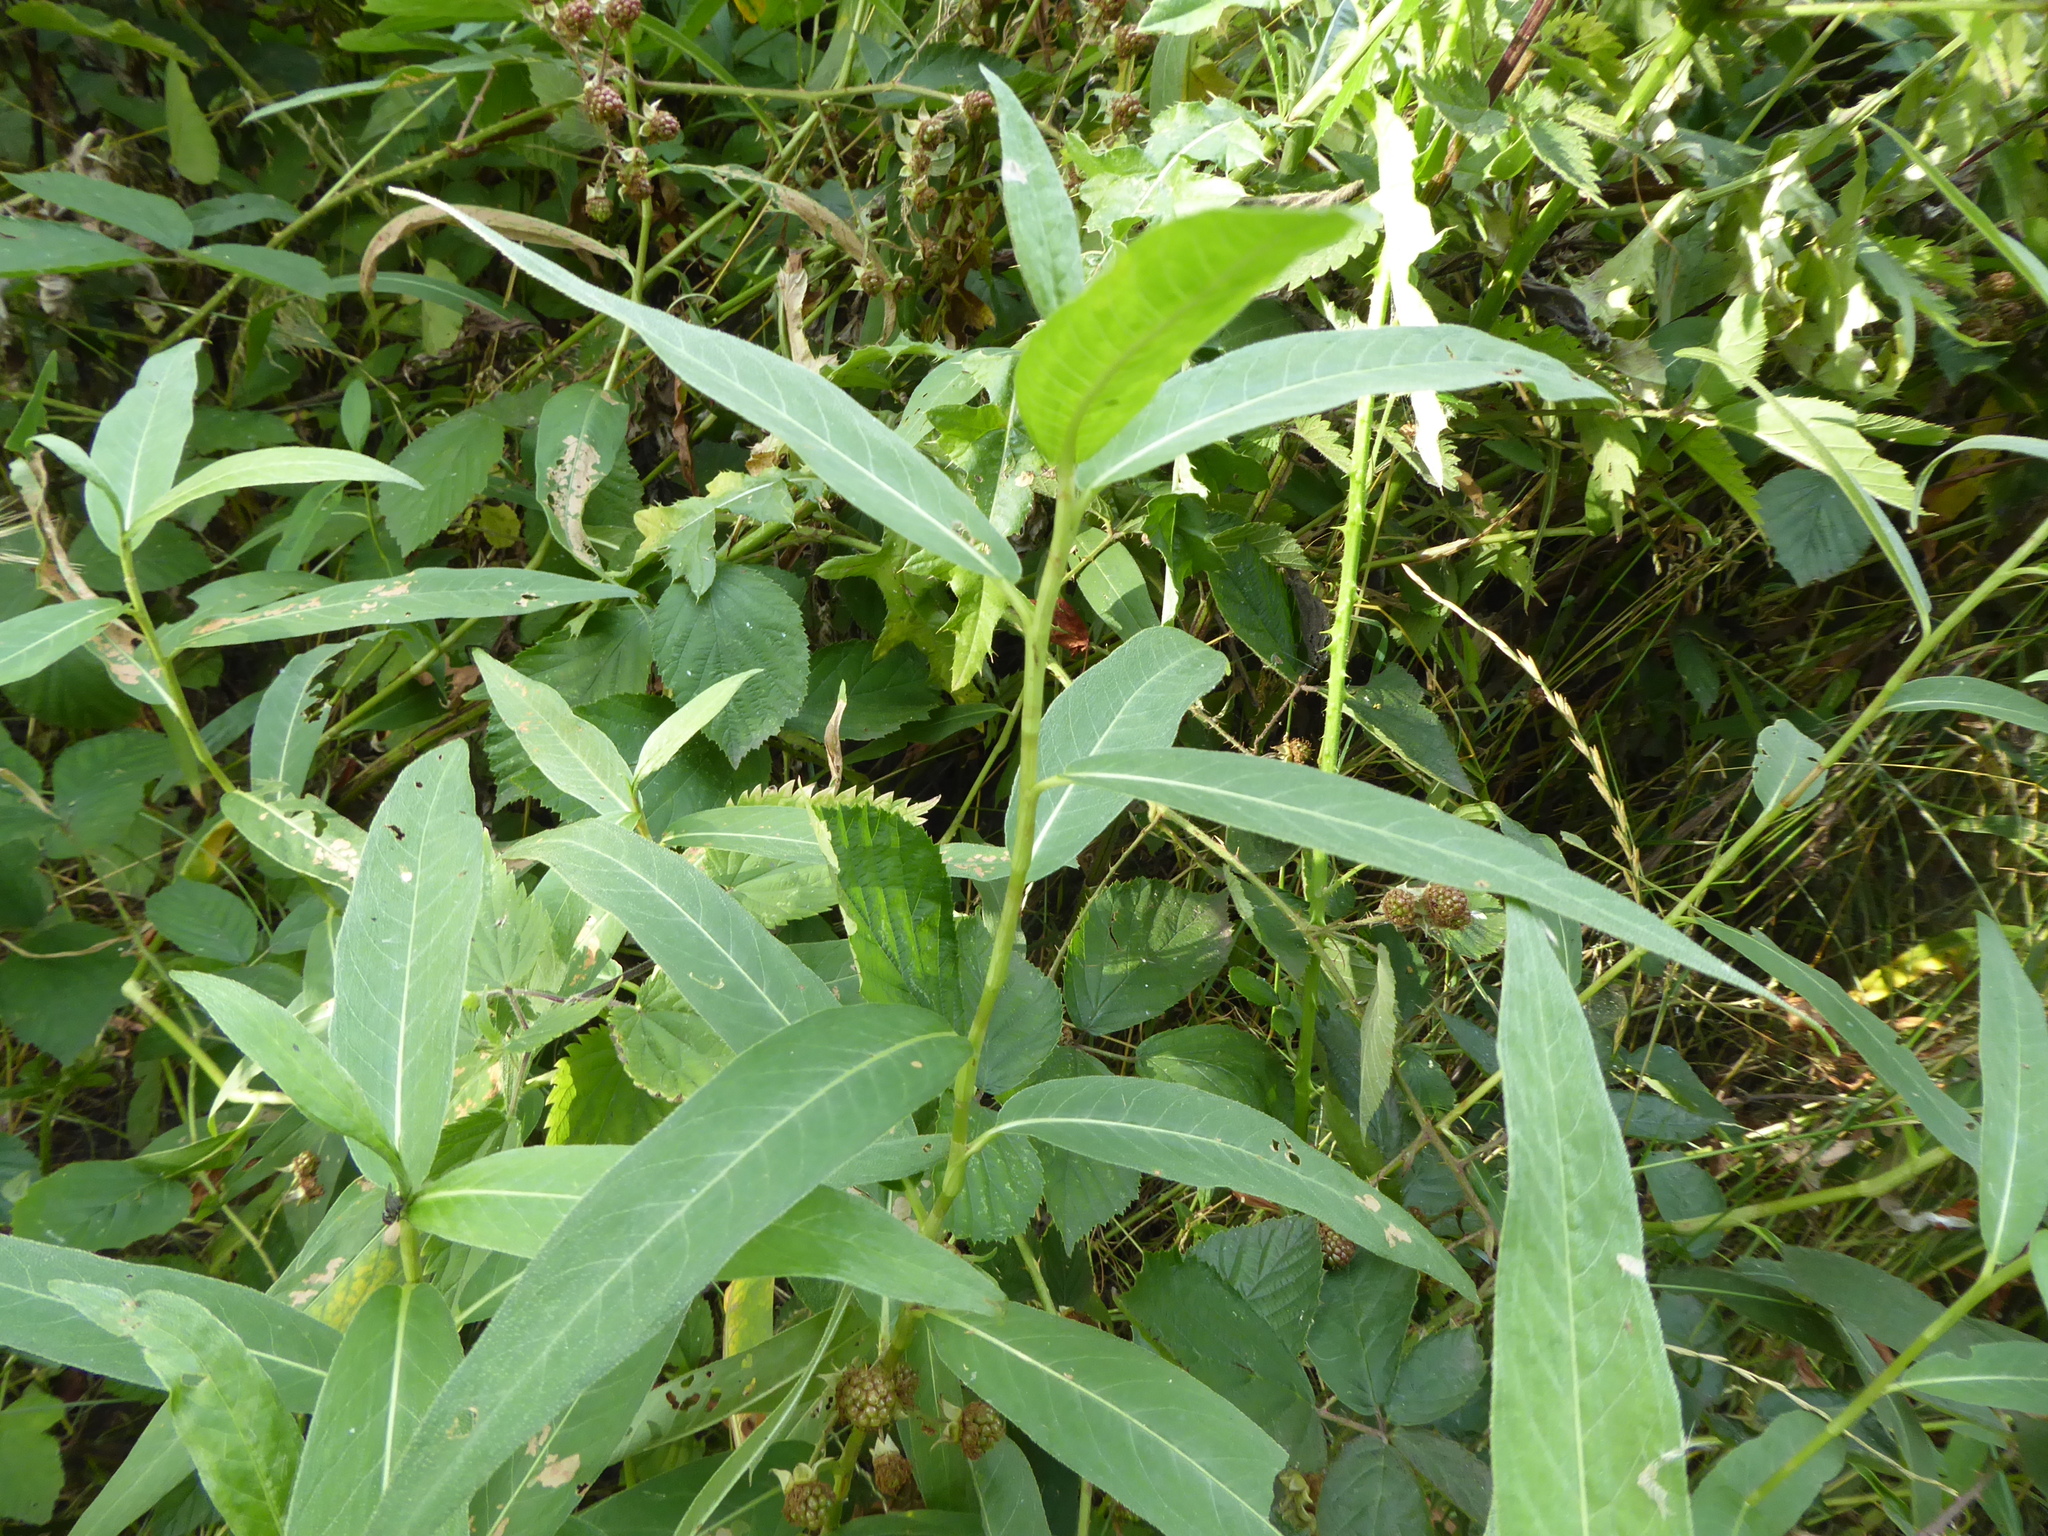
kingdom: Plantae
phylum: Tracheophyta
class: Magnoliopsida
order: Caryophyllales
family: Polygonaceae
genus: Persicaria
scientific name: Persicaria amphibia
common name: Amphibious bistort
